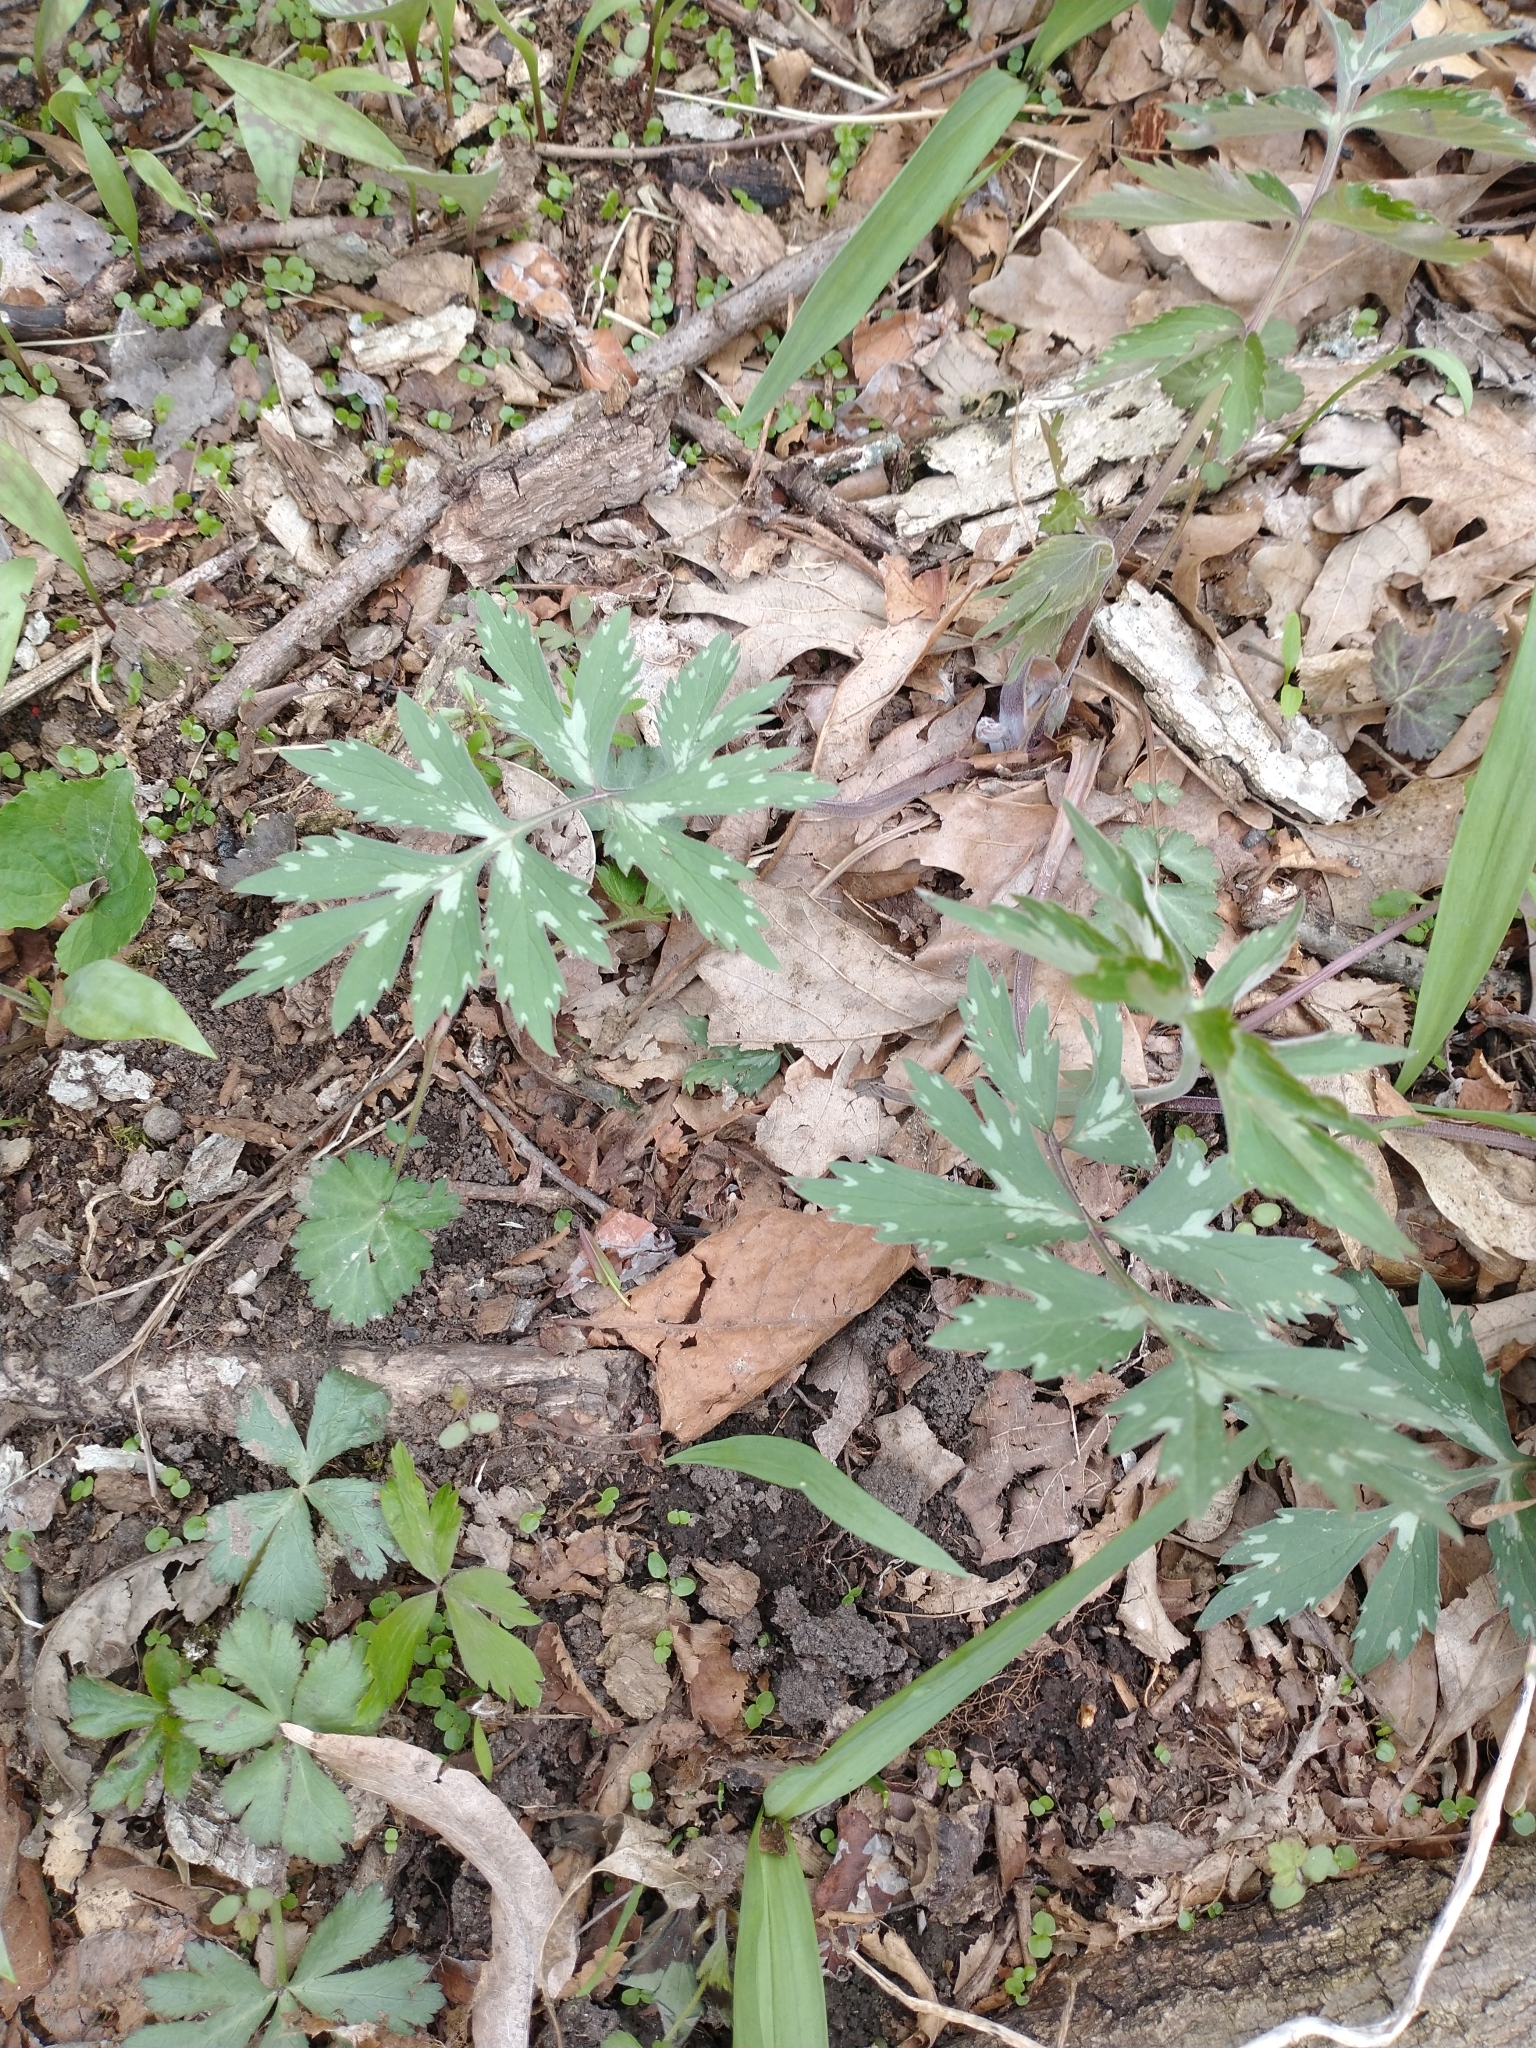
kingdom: Plantae
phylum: Tracheophyta
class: Magnoliopsida
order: Boraginales
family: Hydrophyllaceae
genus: Hydrophyllum
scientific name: Hydrophyllum virginianum
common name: Virginia waterleaf
